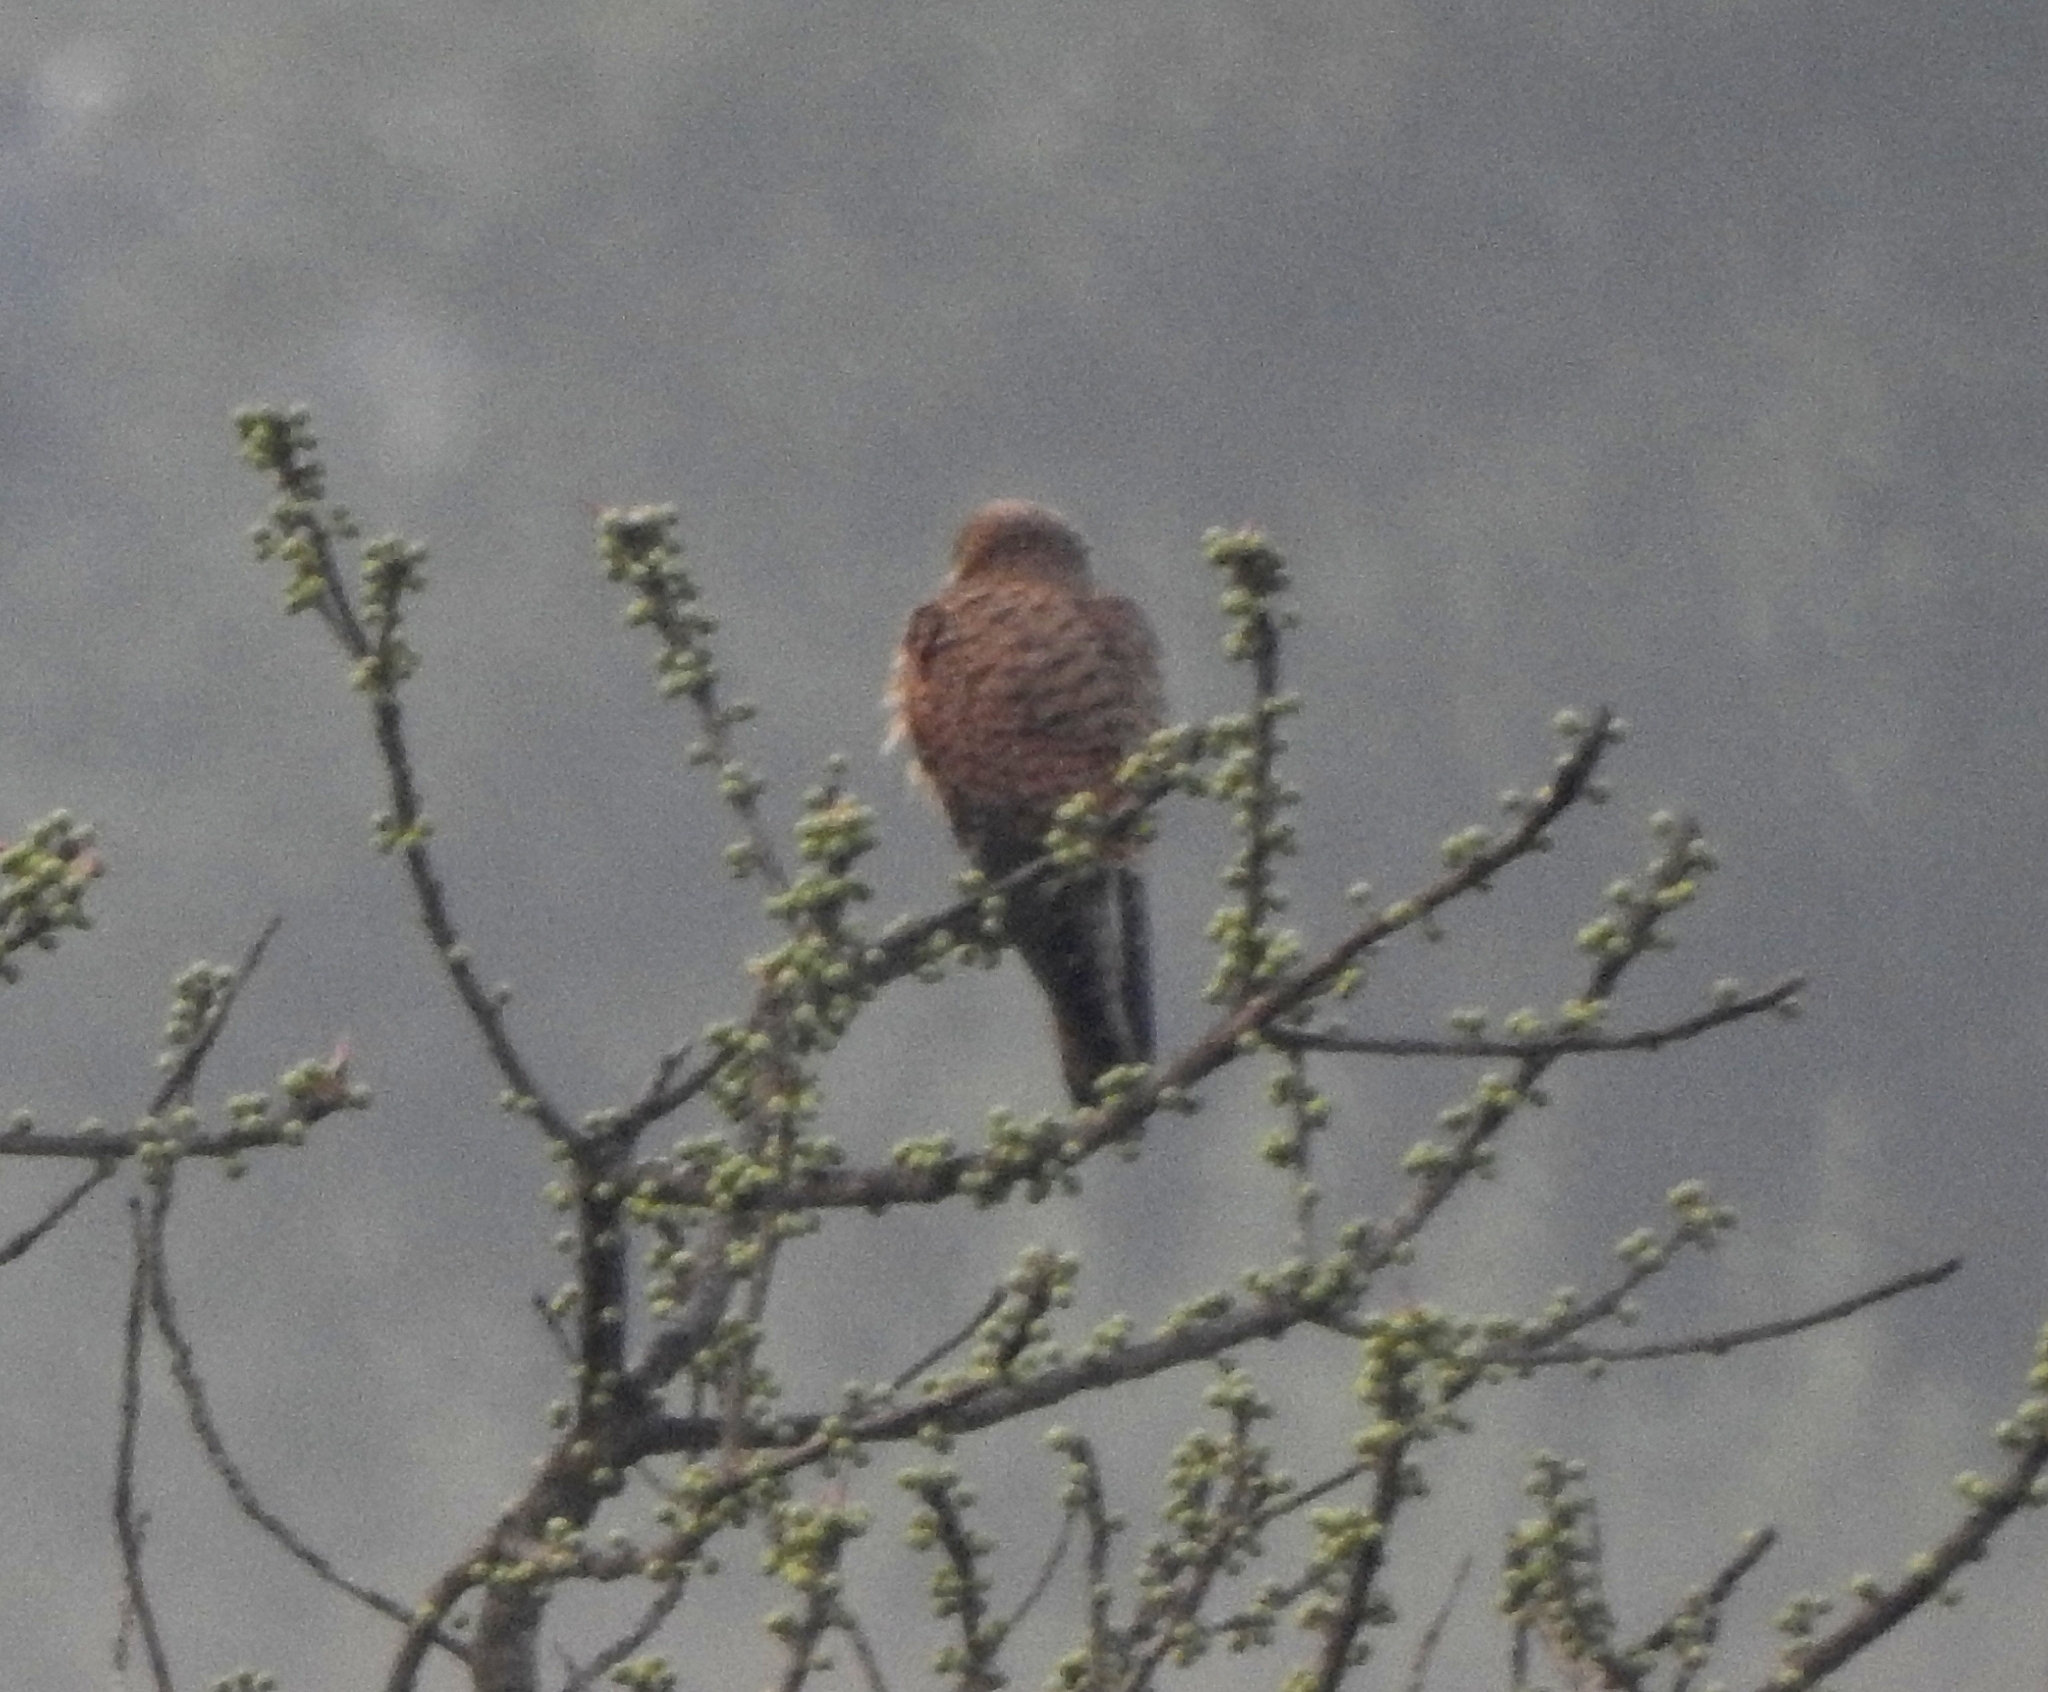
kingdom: Animalia
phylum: Chordata
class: Aves
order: Falconiformes
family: Falconidae
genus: Falco
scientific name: Falco tinnunculus
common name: Common kestrel
